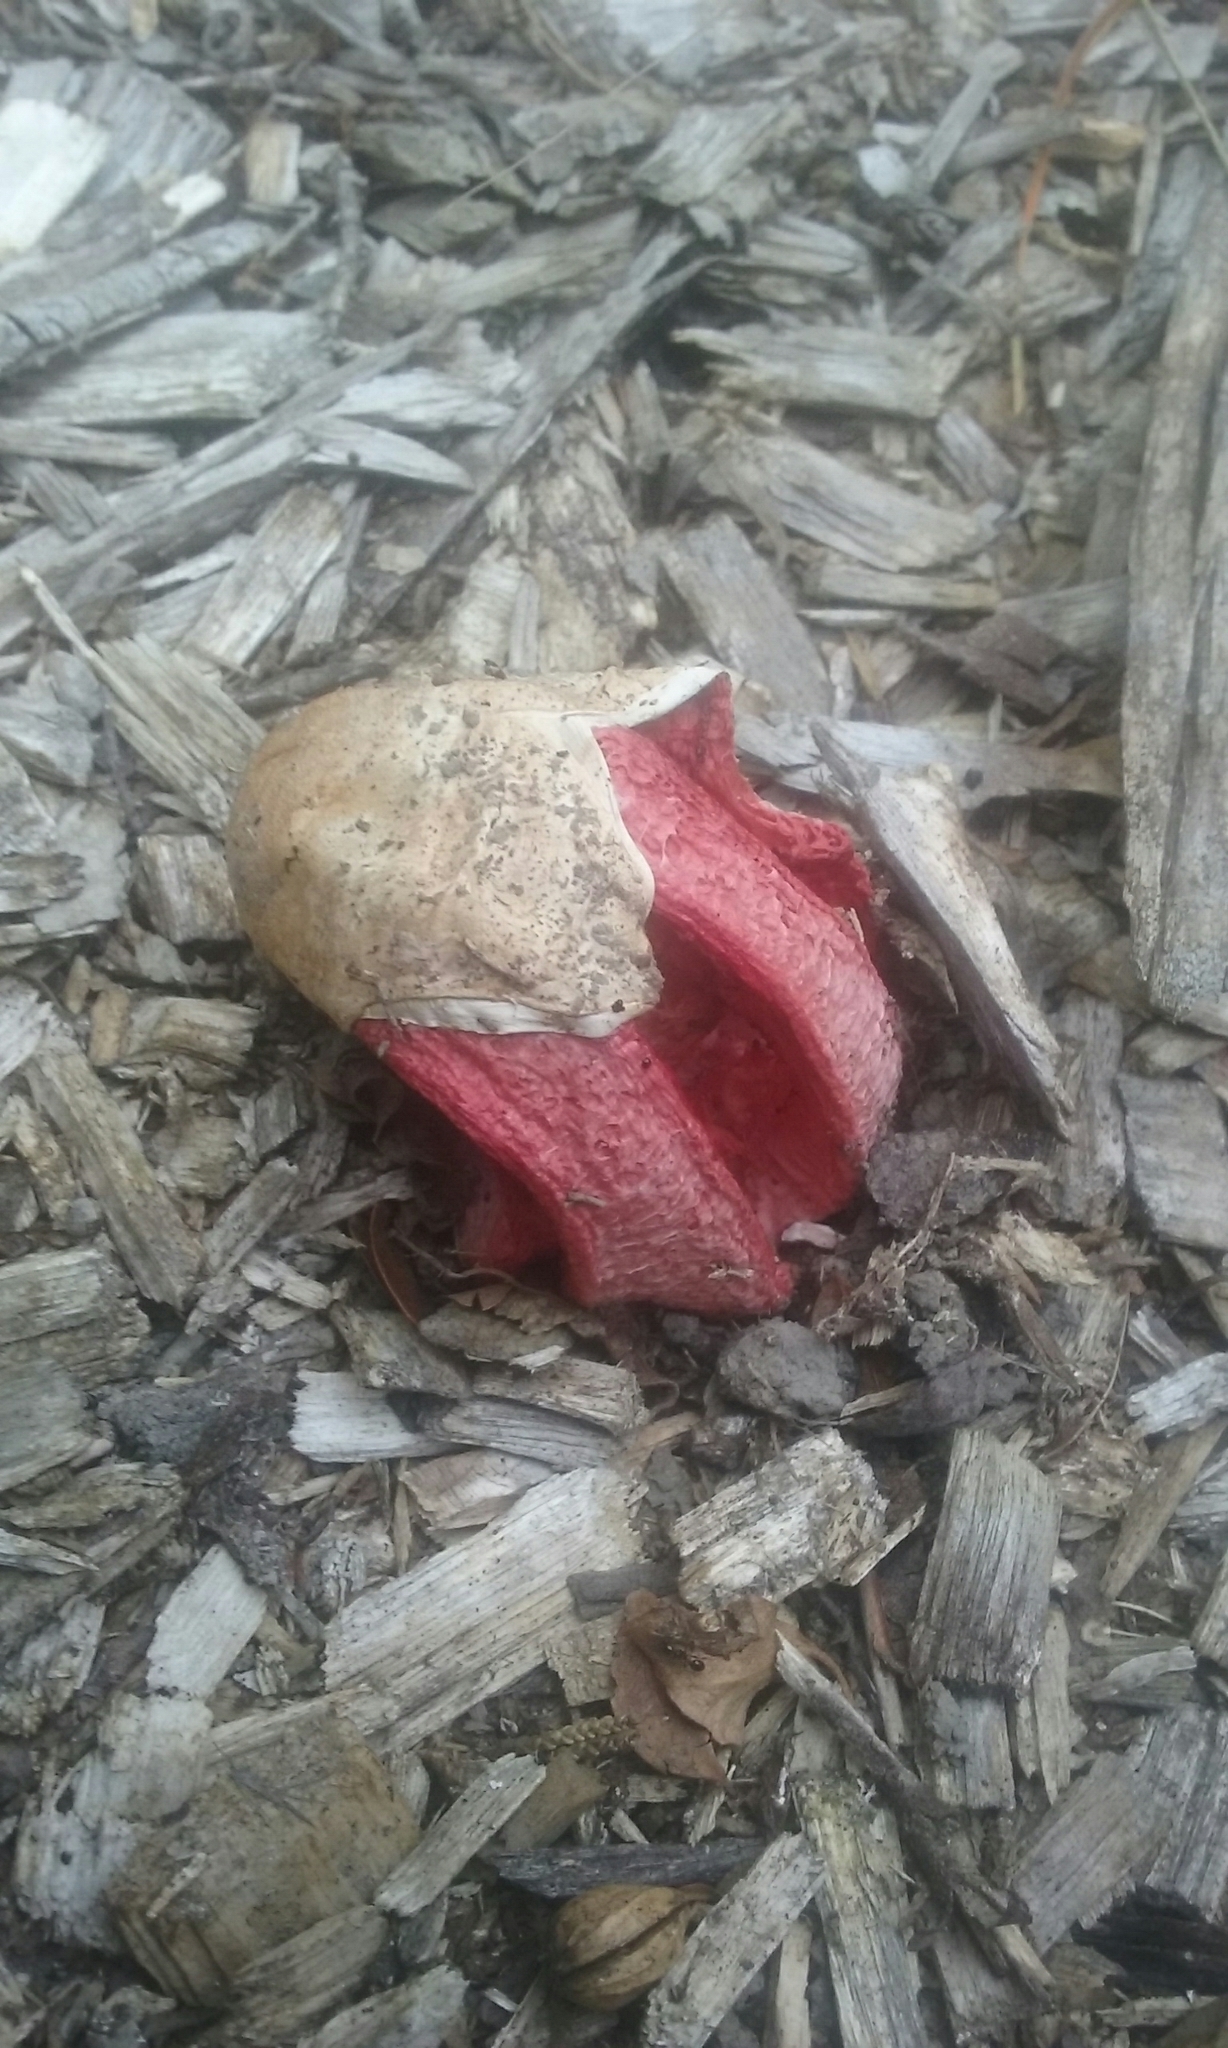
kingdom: Fungi
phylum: Basidiomycota
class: Agaricomycetes
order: Phallales
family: Phallaceae
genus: Clathrus
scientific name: Clathrus archeri
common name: Devil's fingers
